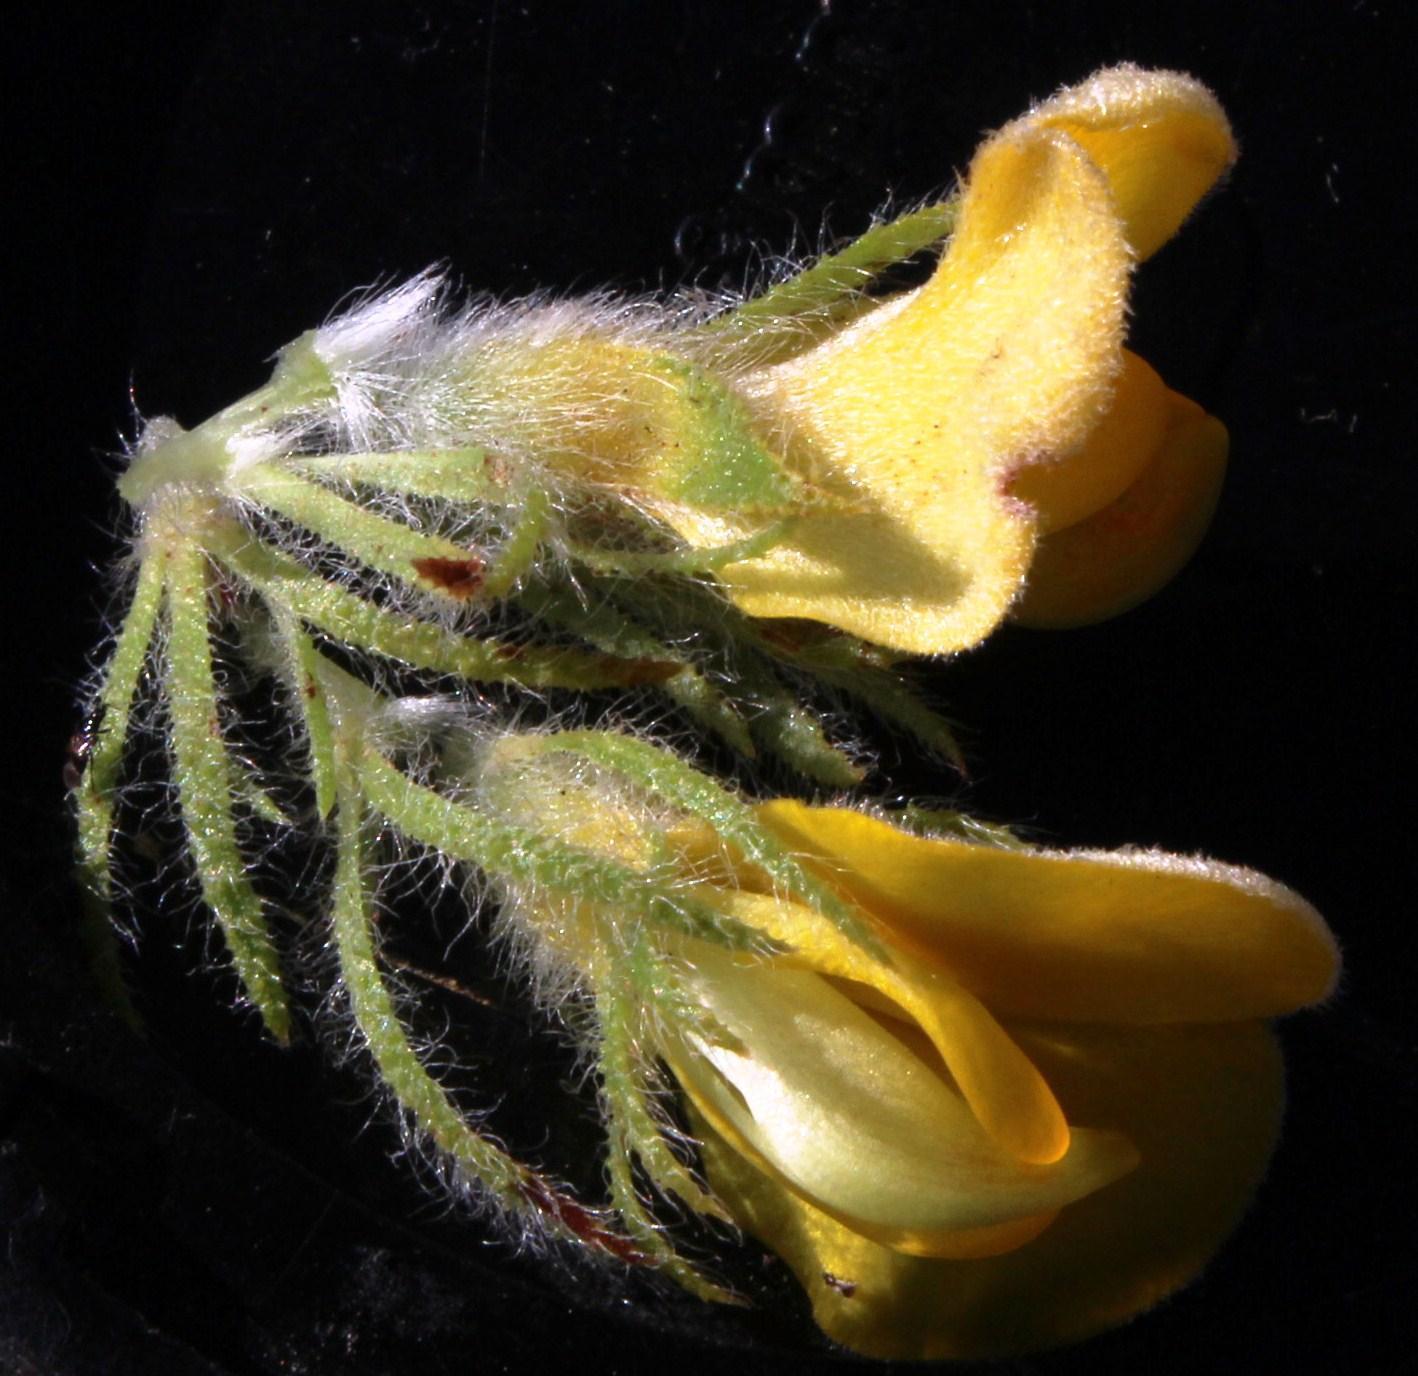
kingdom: Plantae
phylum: Tracheophyta
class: Magnoliopsida
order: Fabales
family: Fabaceae
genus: Aspalathus
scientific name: Aspalathus ciliaris
